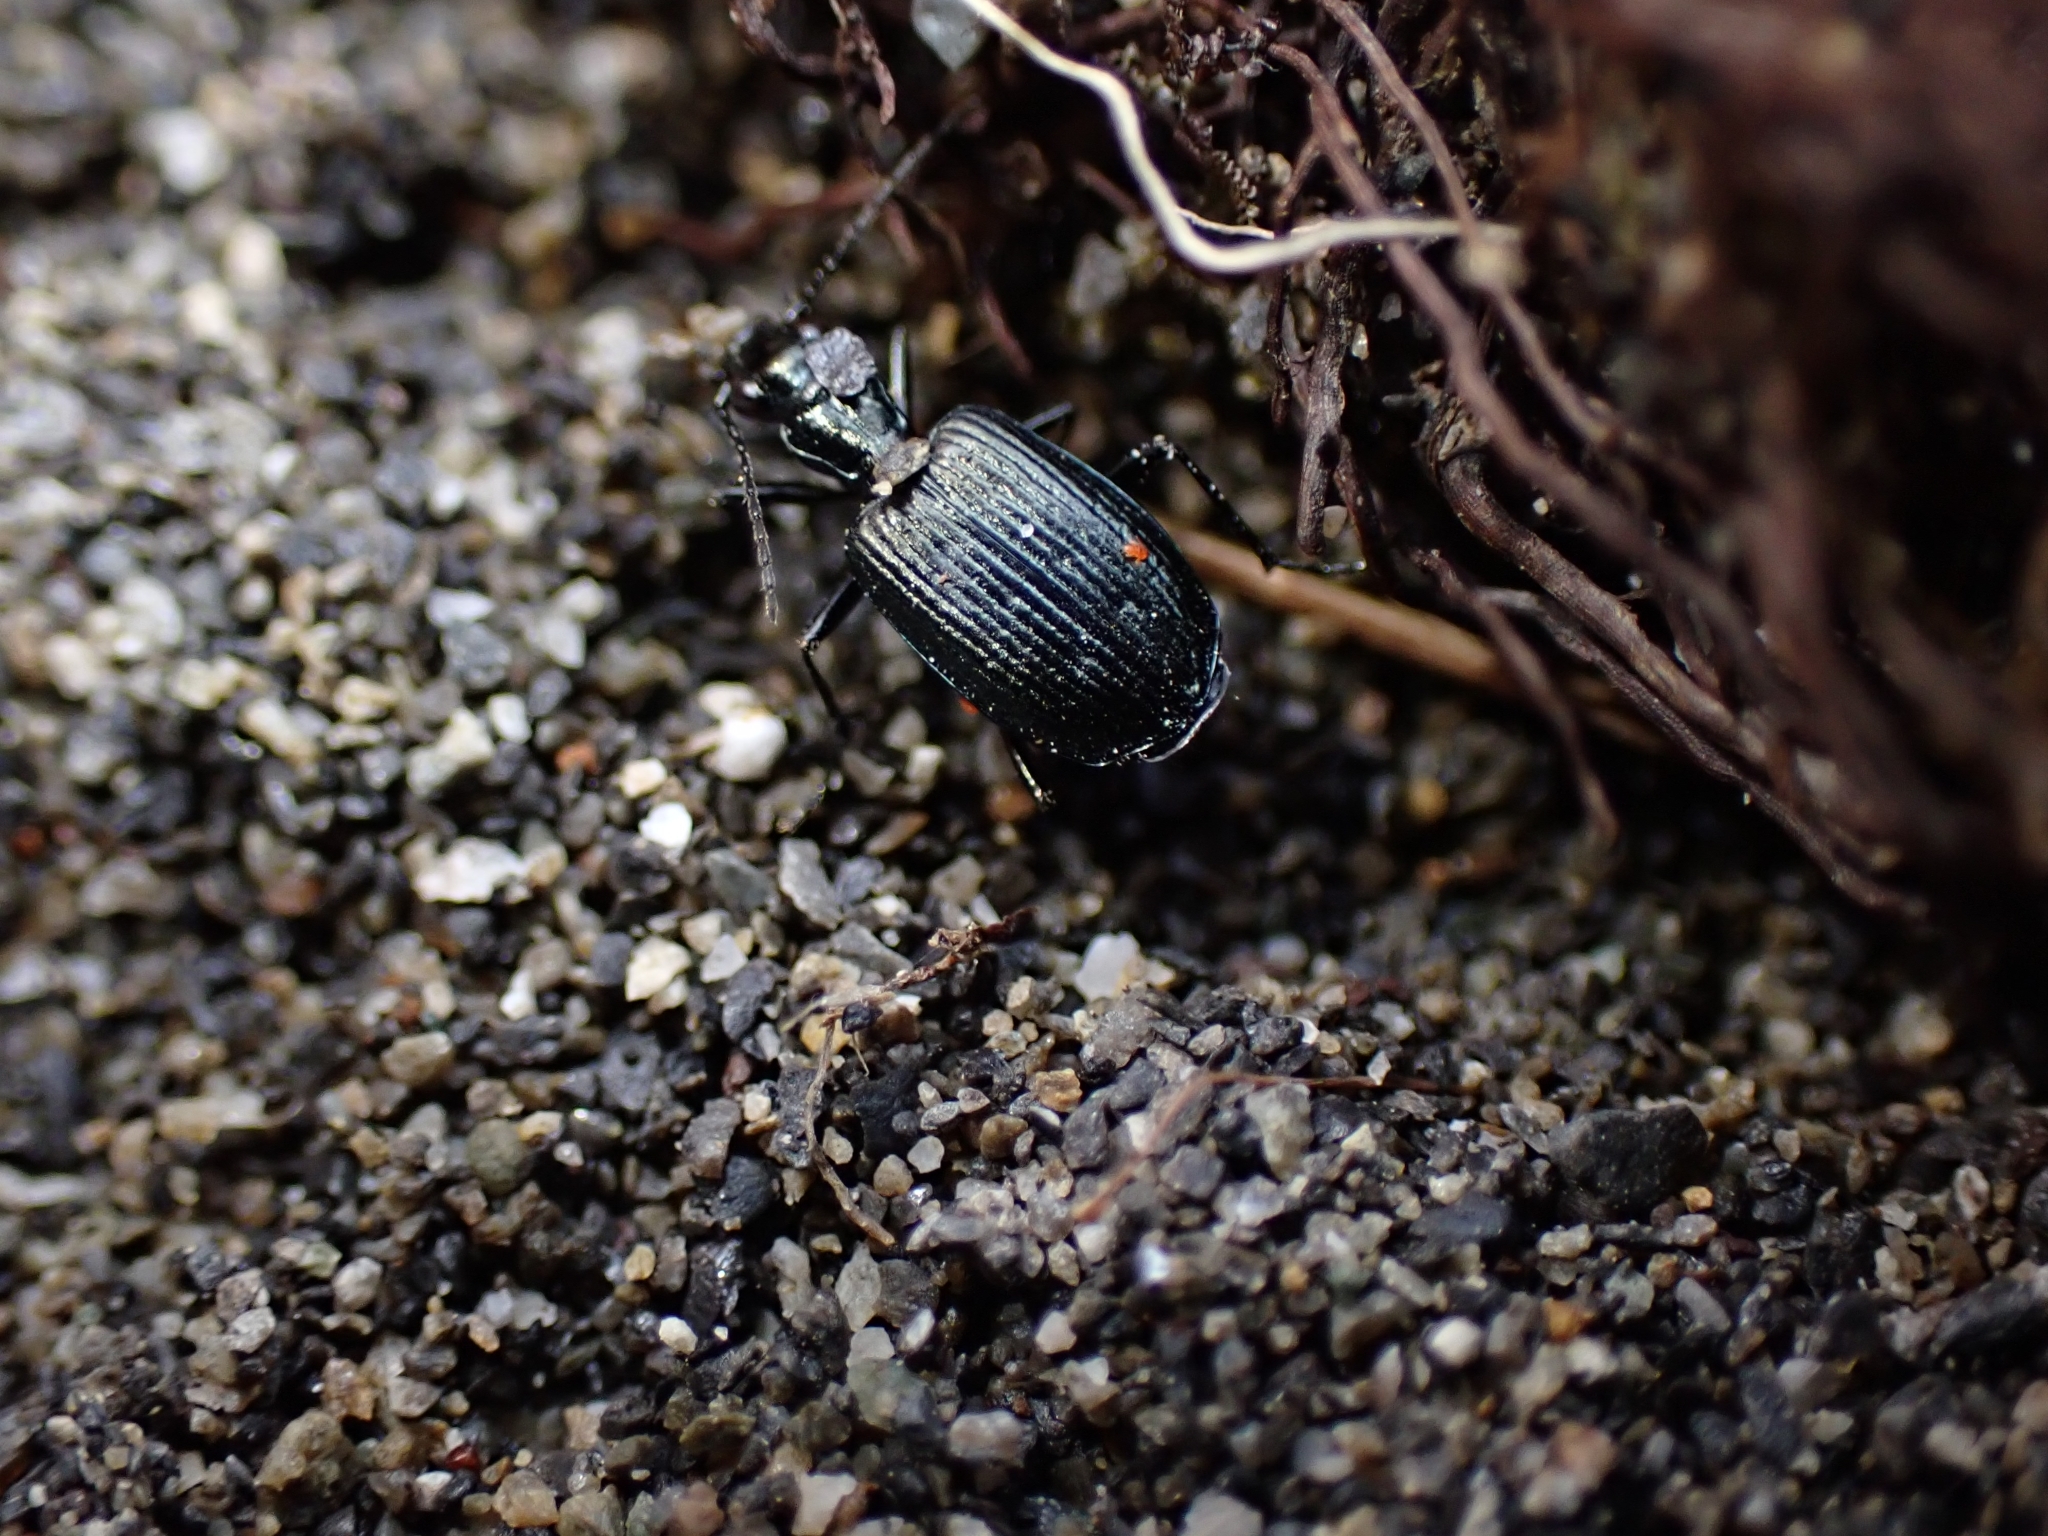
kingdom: Animalia
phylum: Arthropoda
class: Insecta
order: Coleoptera
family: Carabidae
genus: Actenonyx
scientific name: Actenonyx bembidioides
